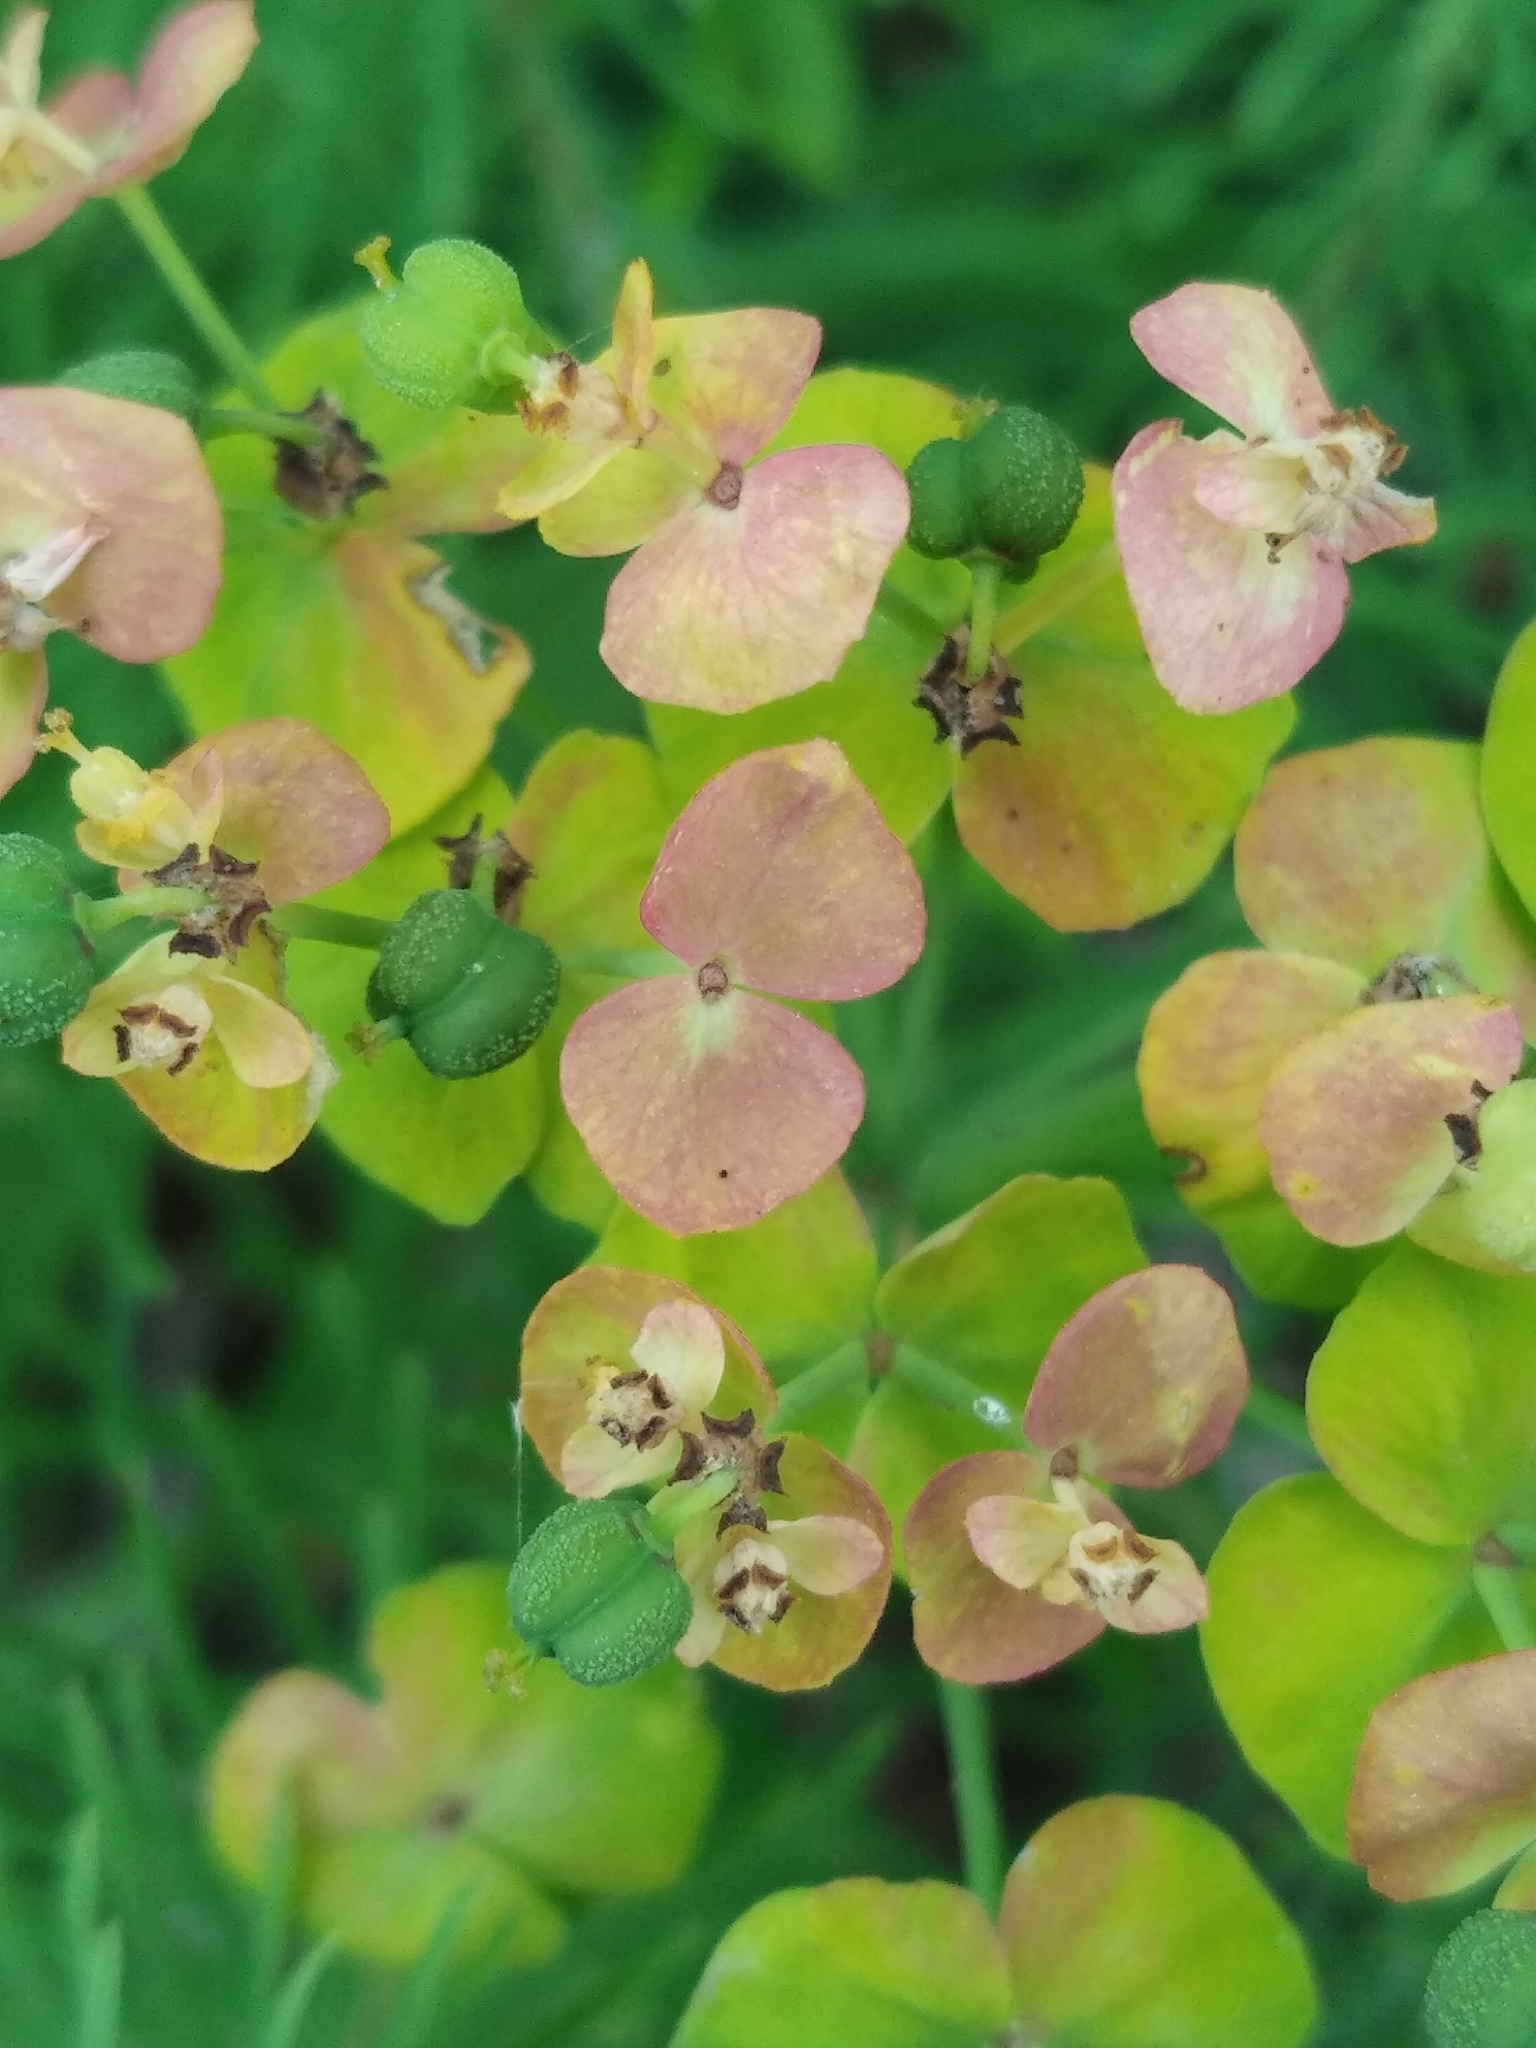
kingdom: Plantae
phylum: Tracheophyta
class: Magnoliopsida
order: Malpighiales
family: Euphorbiaceae
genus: Euphorbia
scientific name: Euphorbia cyparissias
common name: Cypress spurge
